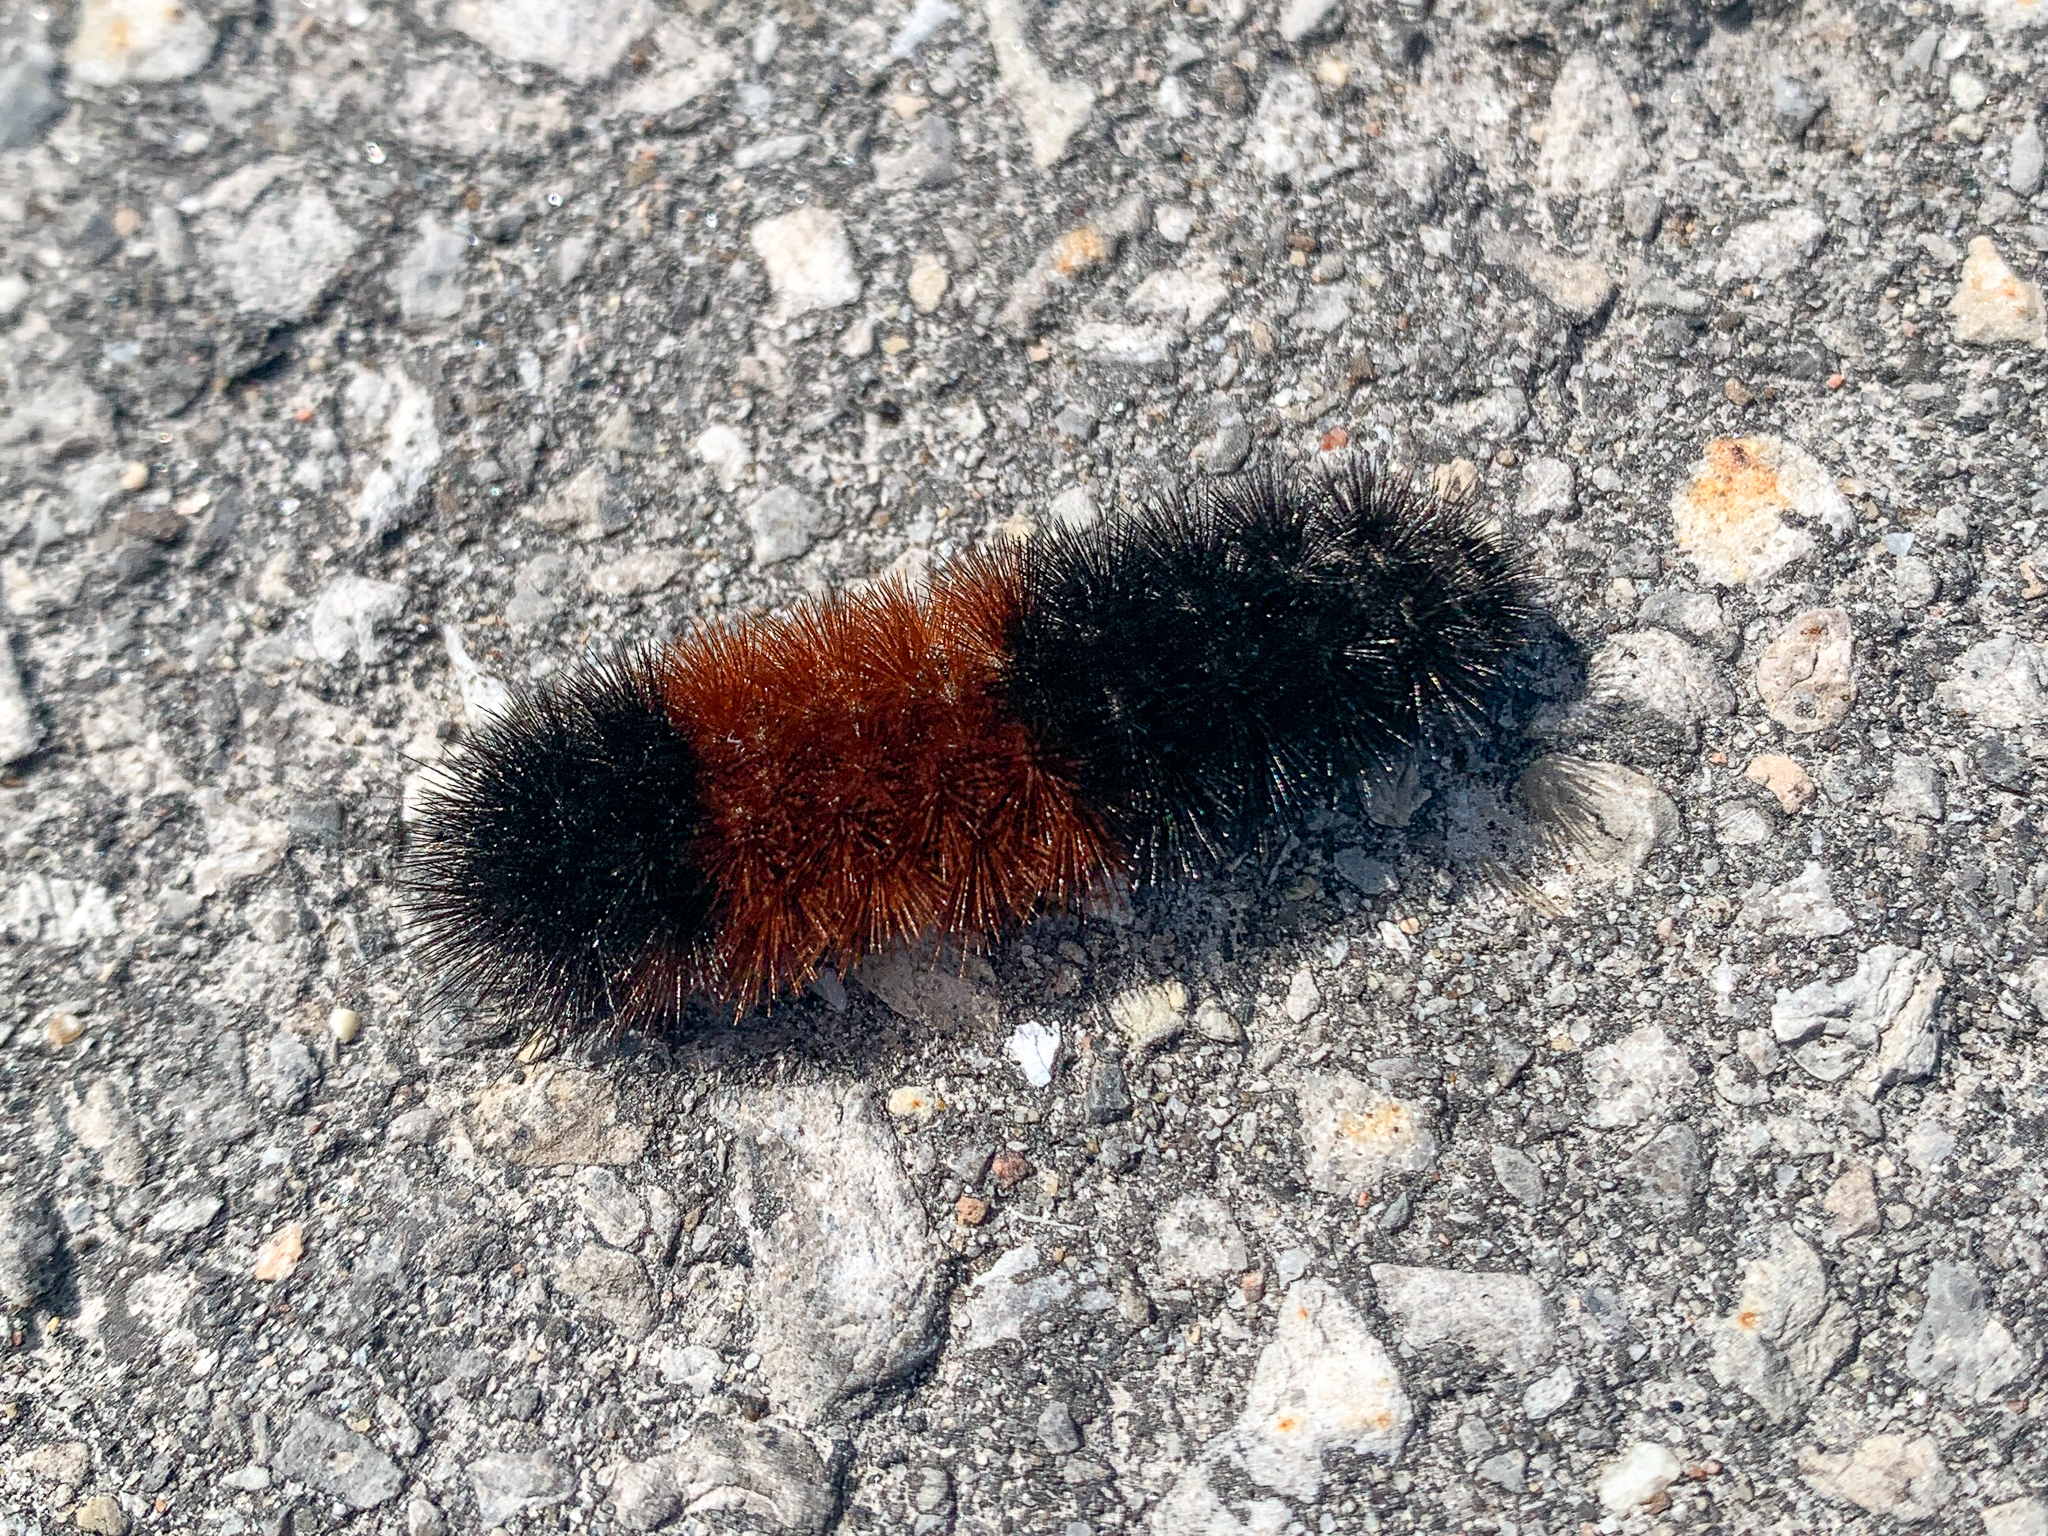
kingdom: Animalia
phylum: Arthropoda
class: Insecta
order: Lepidoptera
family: Erebidae
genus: Pyrrharctia
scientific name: Pyrrharctia isabella
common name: Isabella tiger moth
